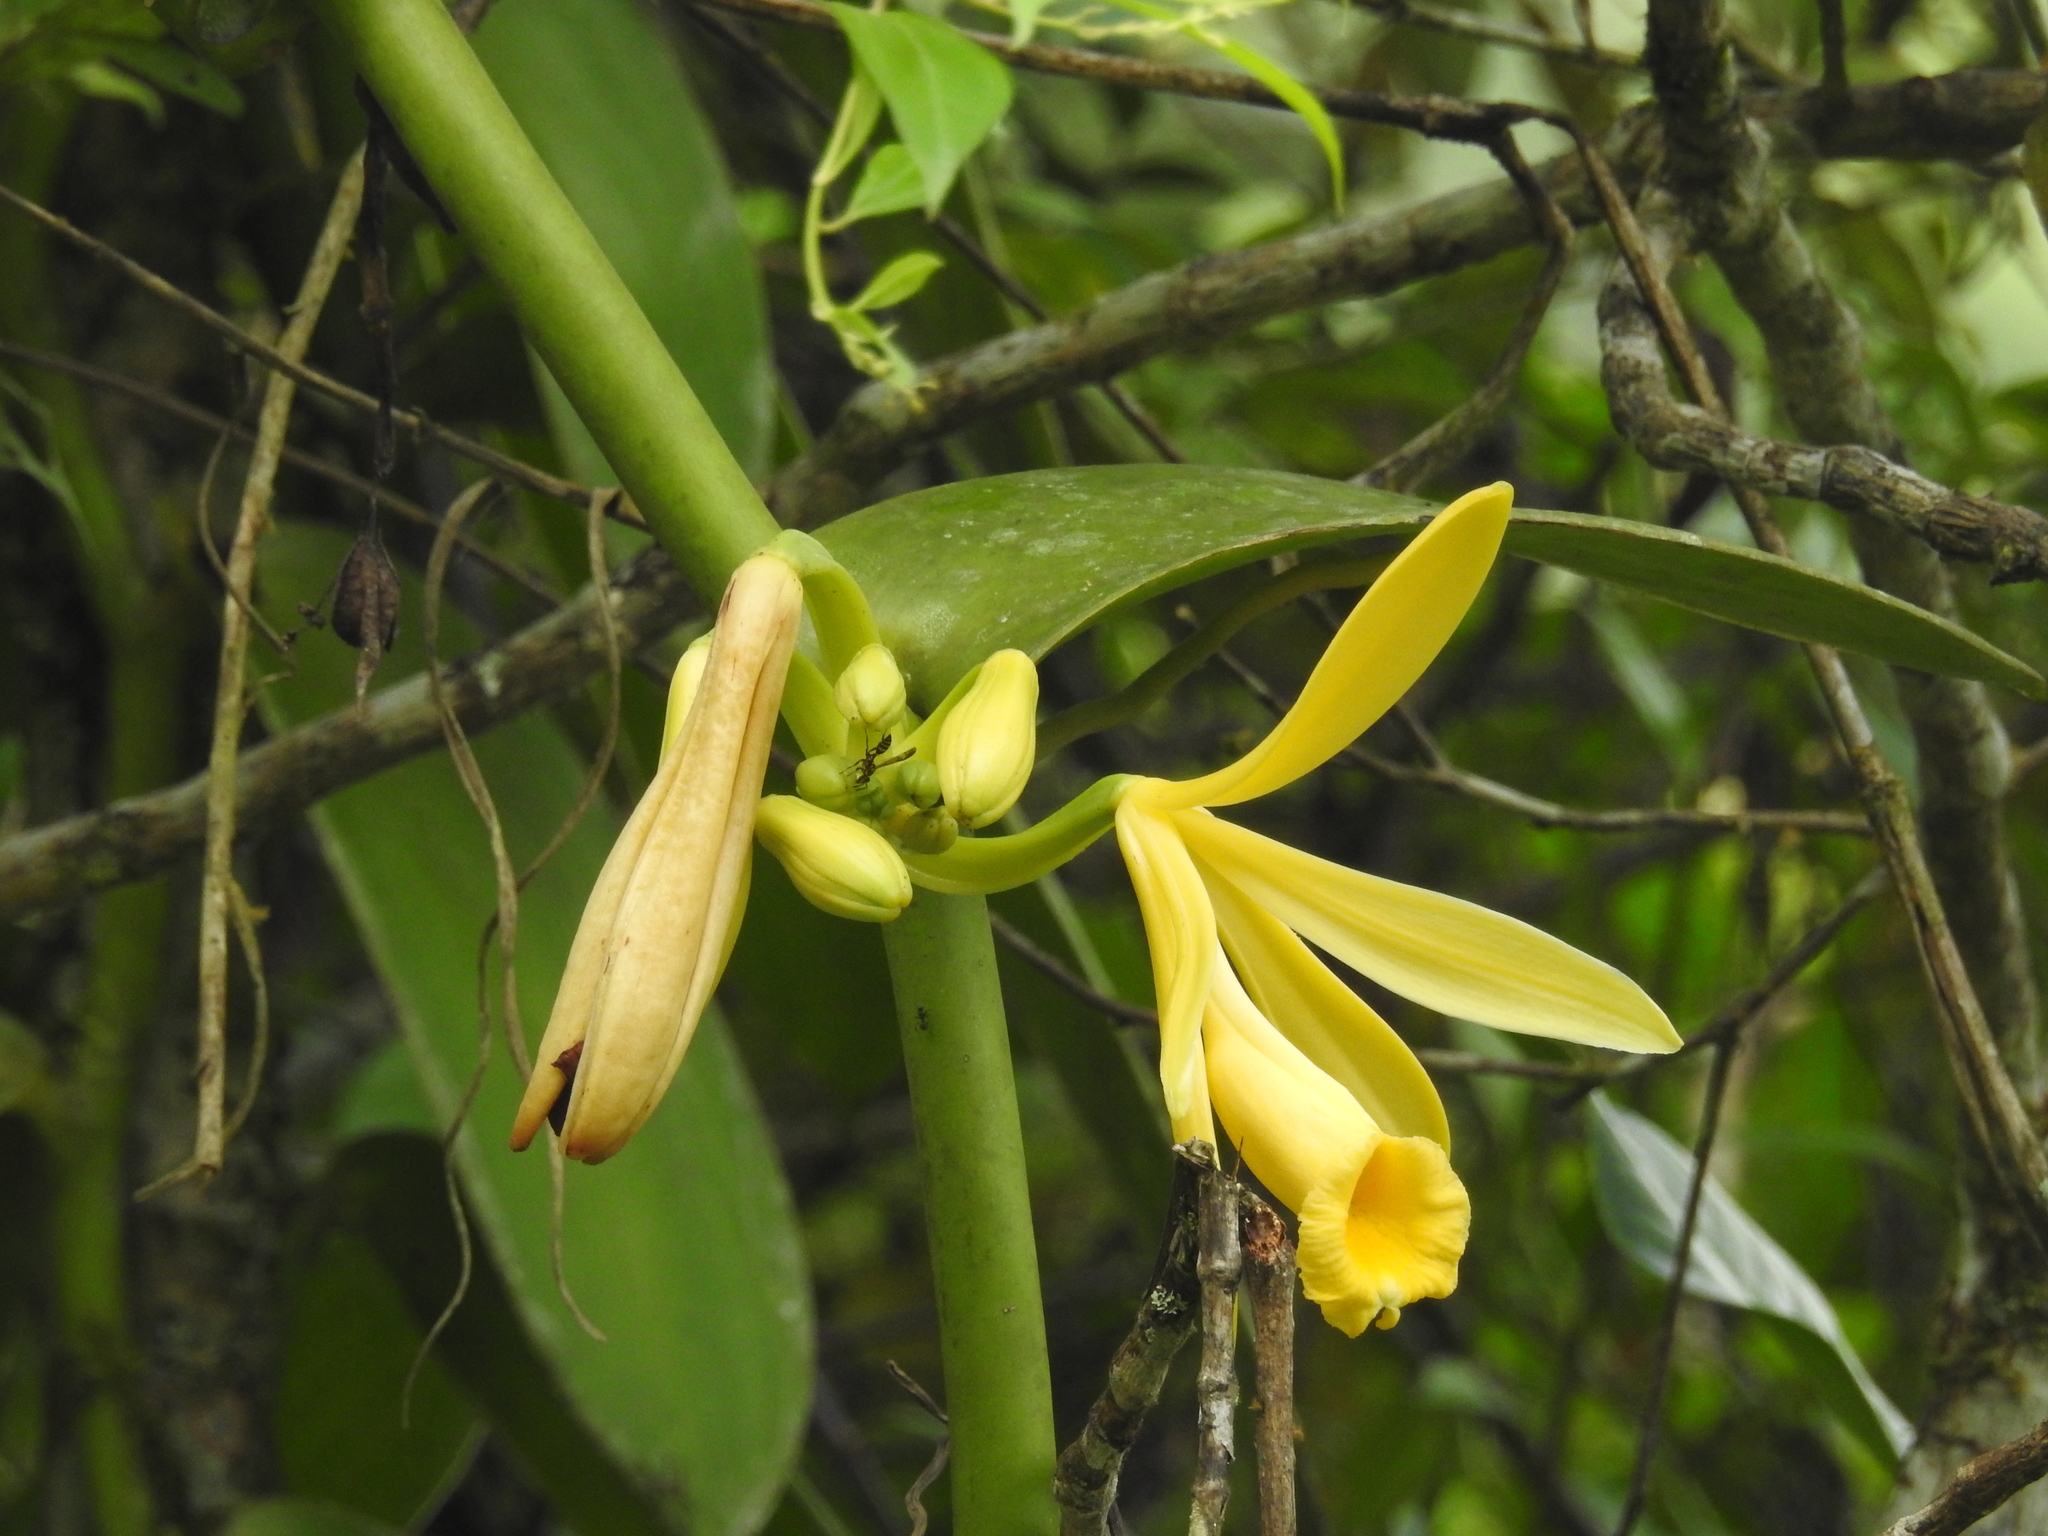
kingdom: Plantae
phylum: Tracheophyta
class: Liliopsida
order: Asparagales
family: Orchidaceae
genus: Vanilla
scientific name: Vanilla pompona
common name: West indian vanilla
